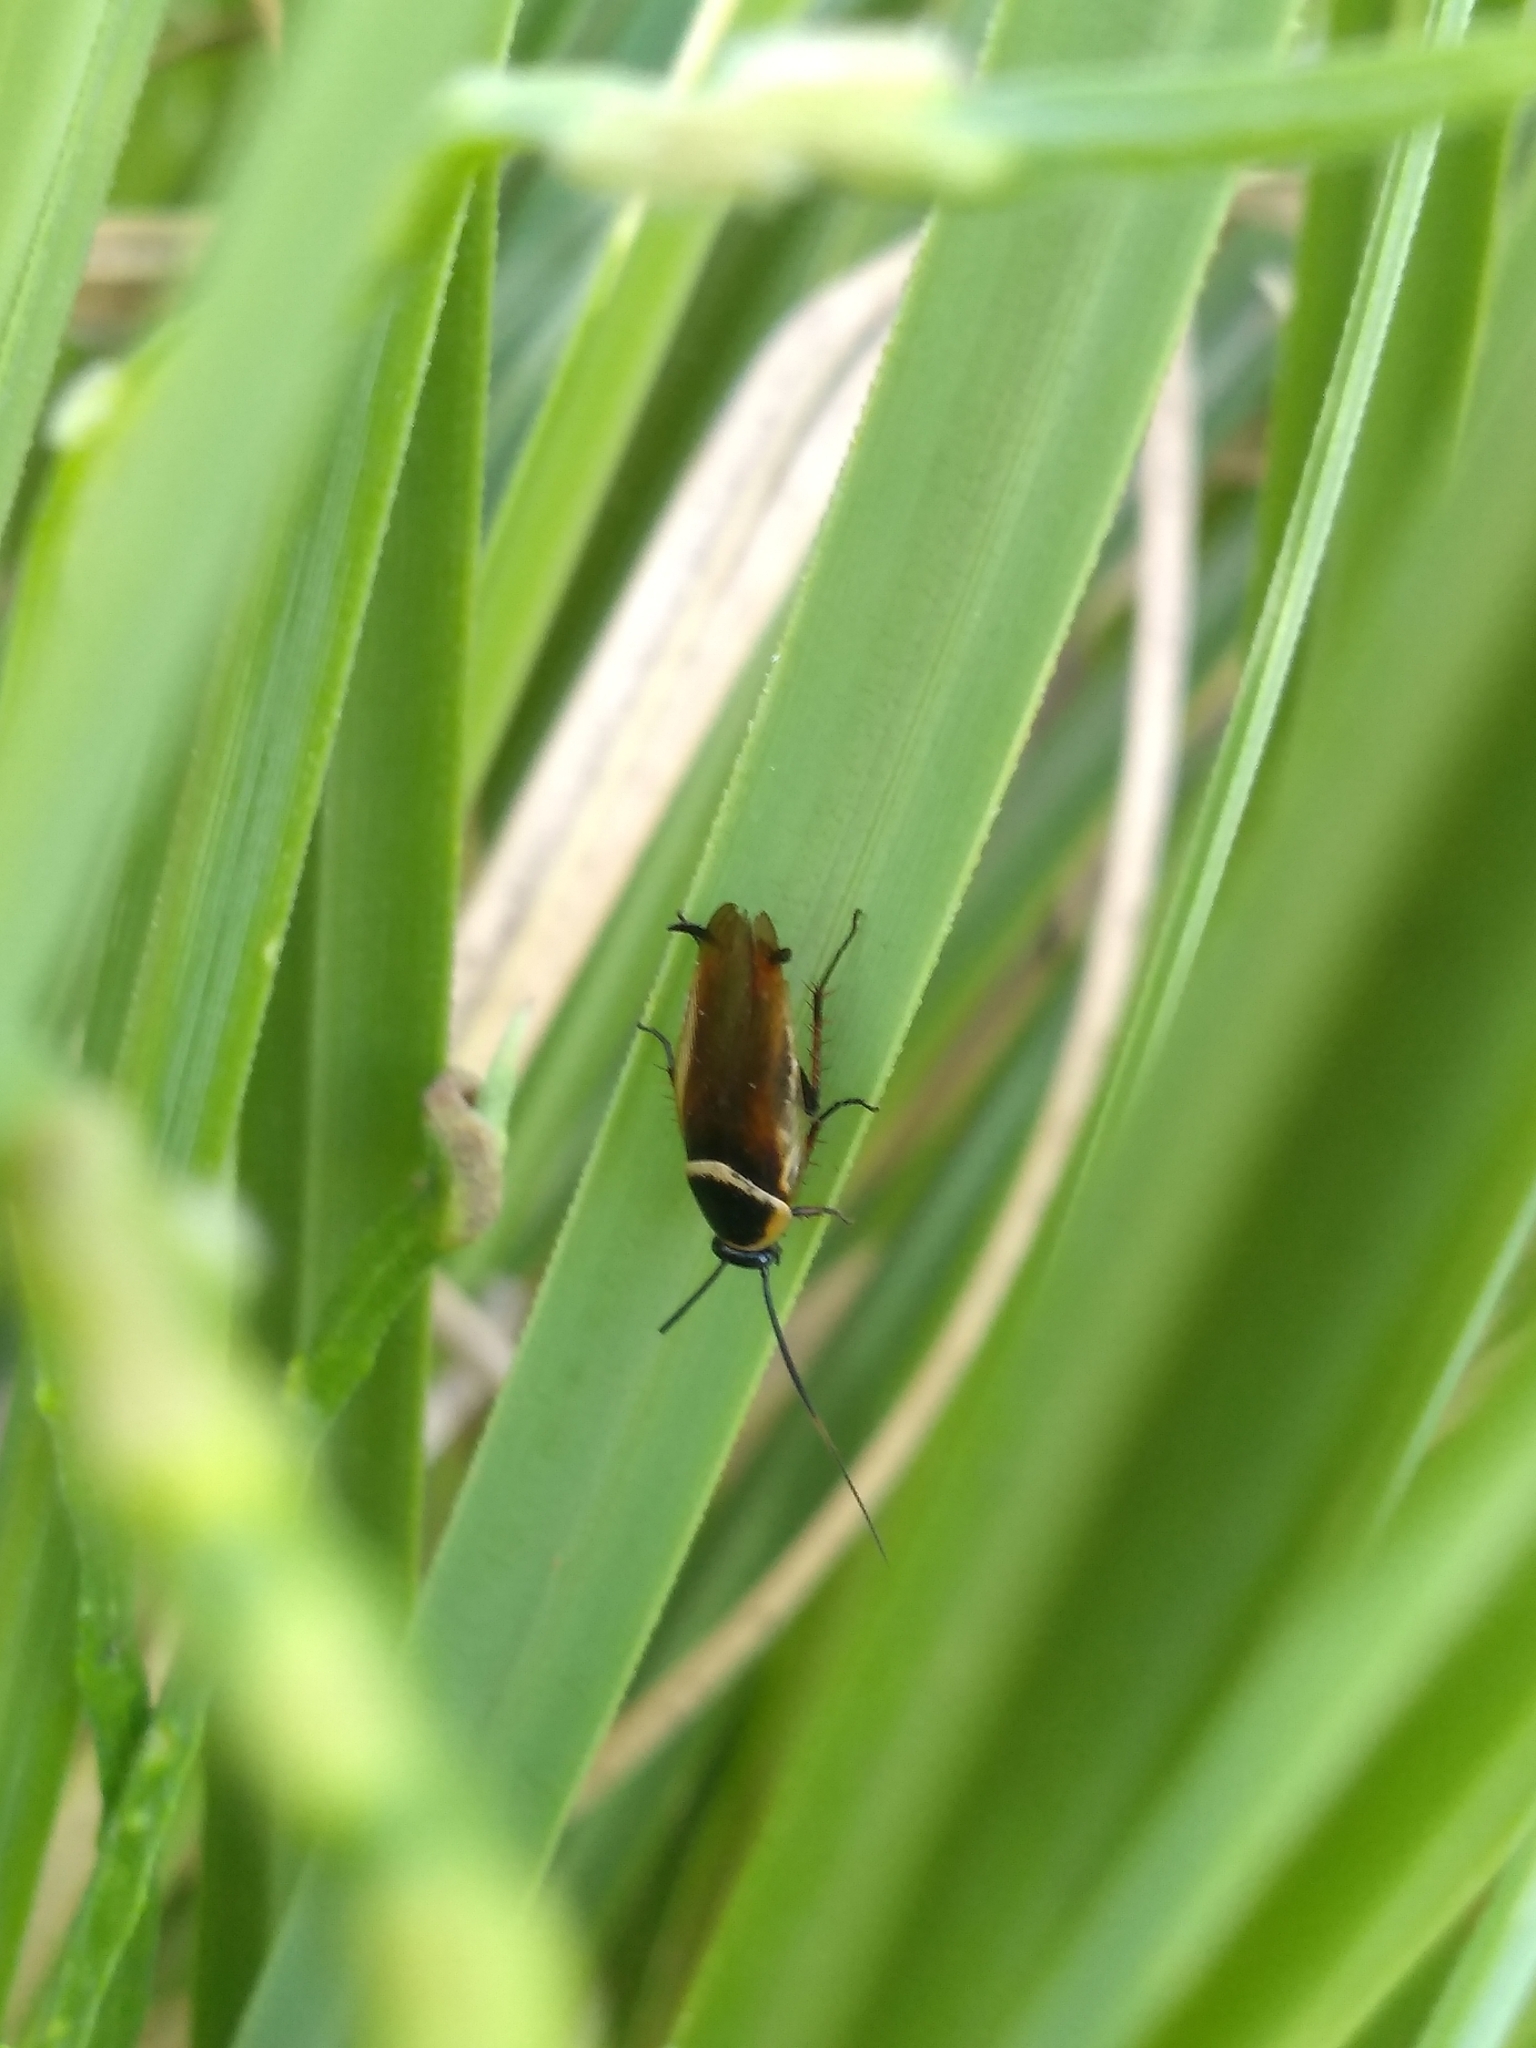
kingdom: Animalia
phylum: Arthropoda
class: Insecta
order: Blattodea
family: Ectobiidae
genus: Pseudomops
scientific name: Pseudomops neglectus
